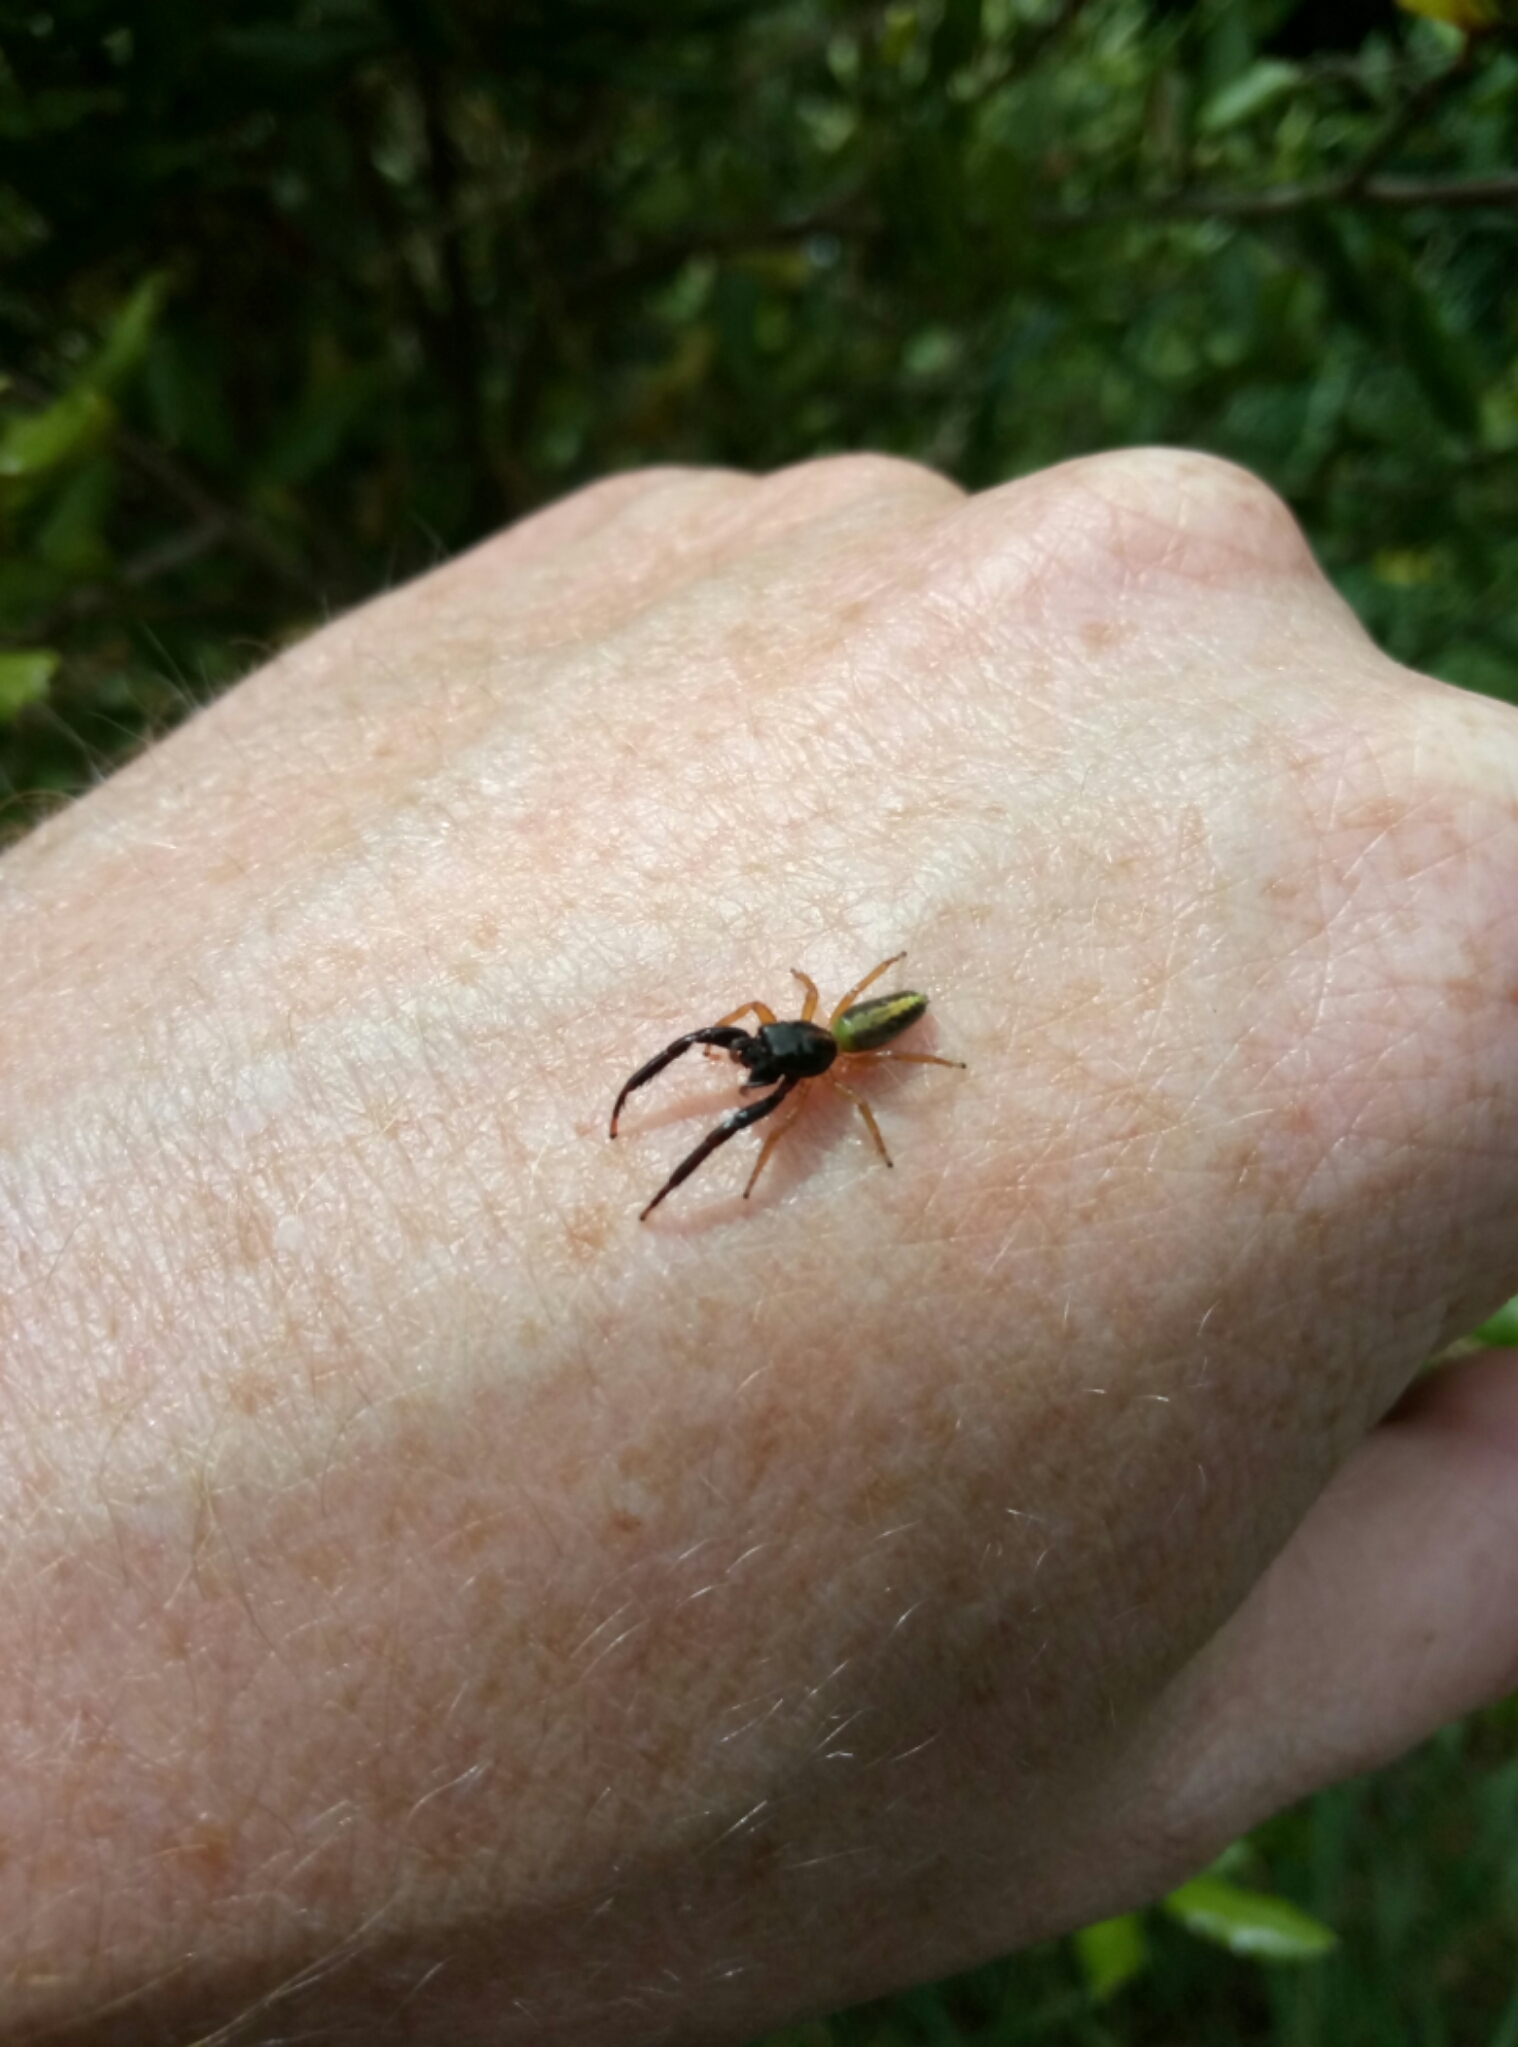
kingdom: Animalia
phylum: Arthropoda
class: Arachnida
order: Araneae
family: Salticidae
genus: Trite
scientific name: Trite planiceps
